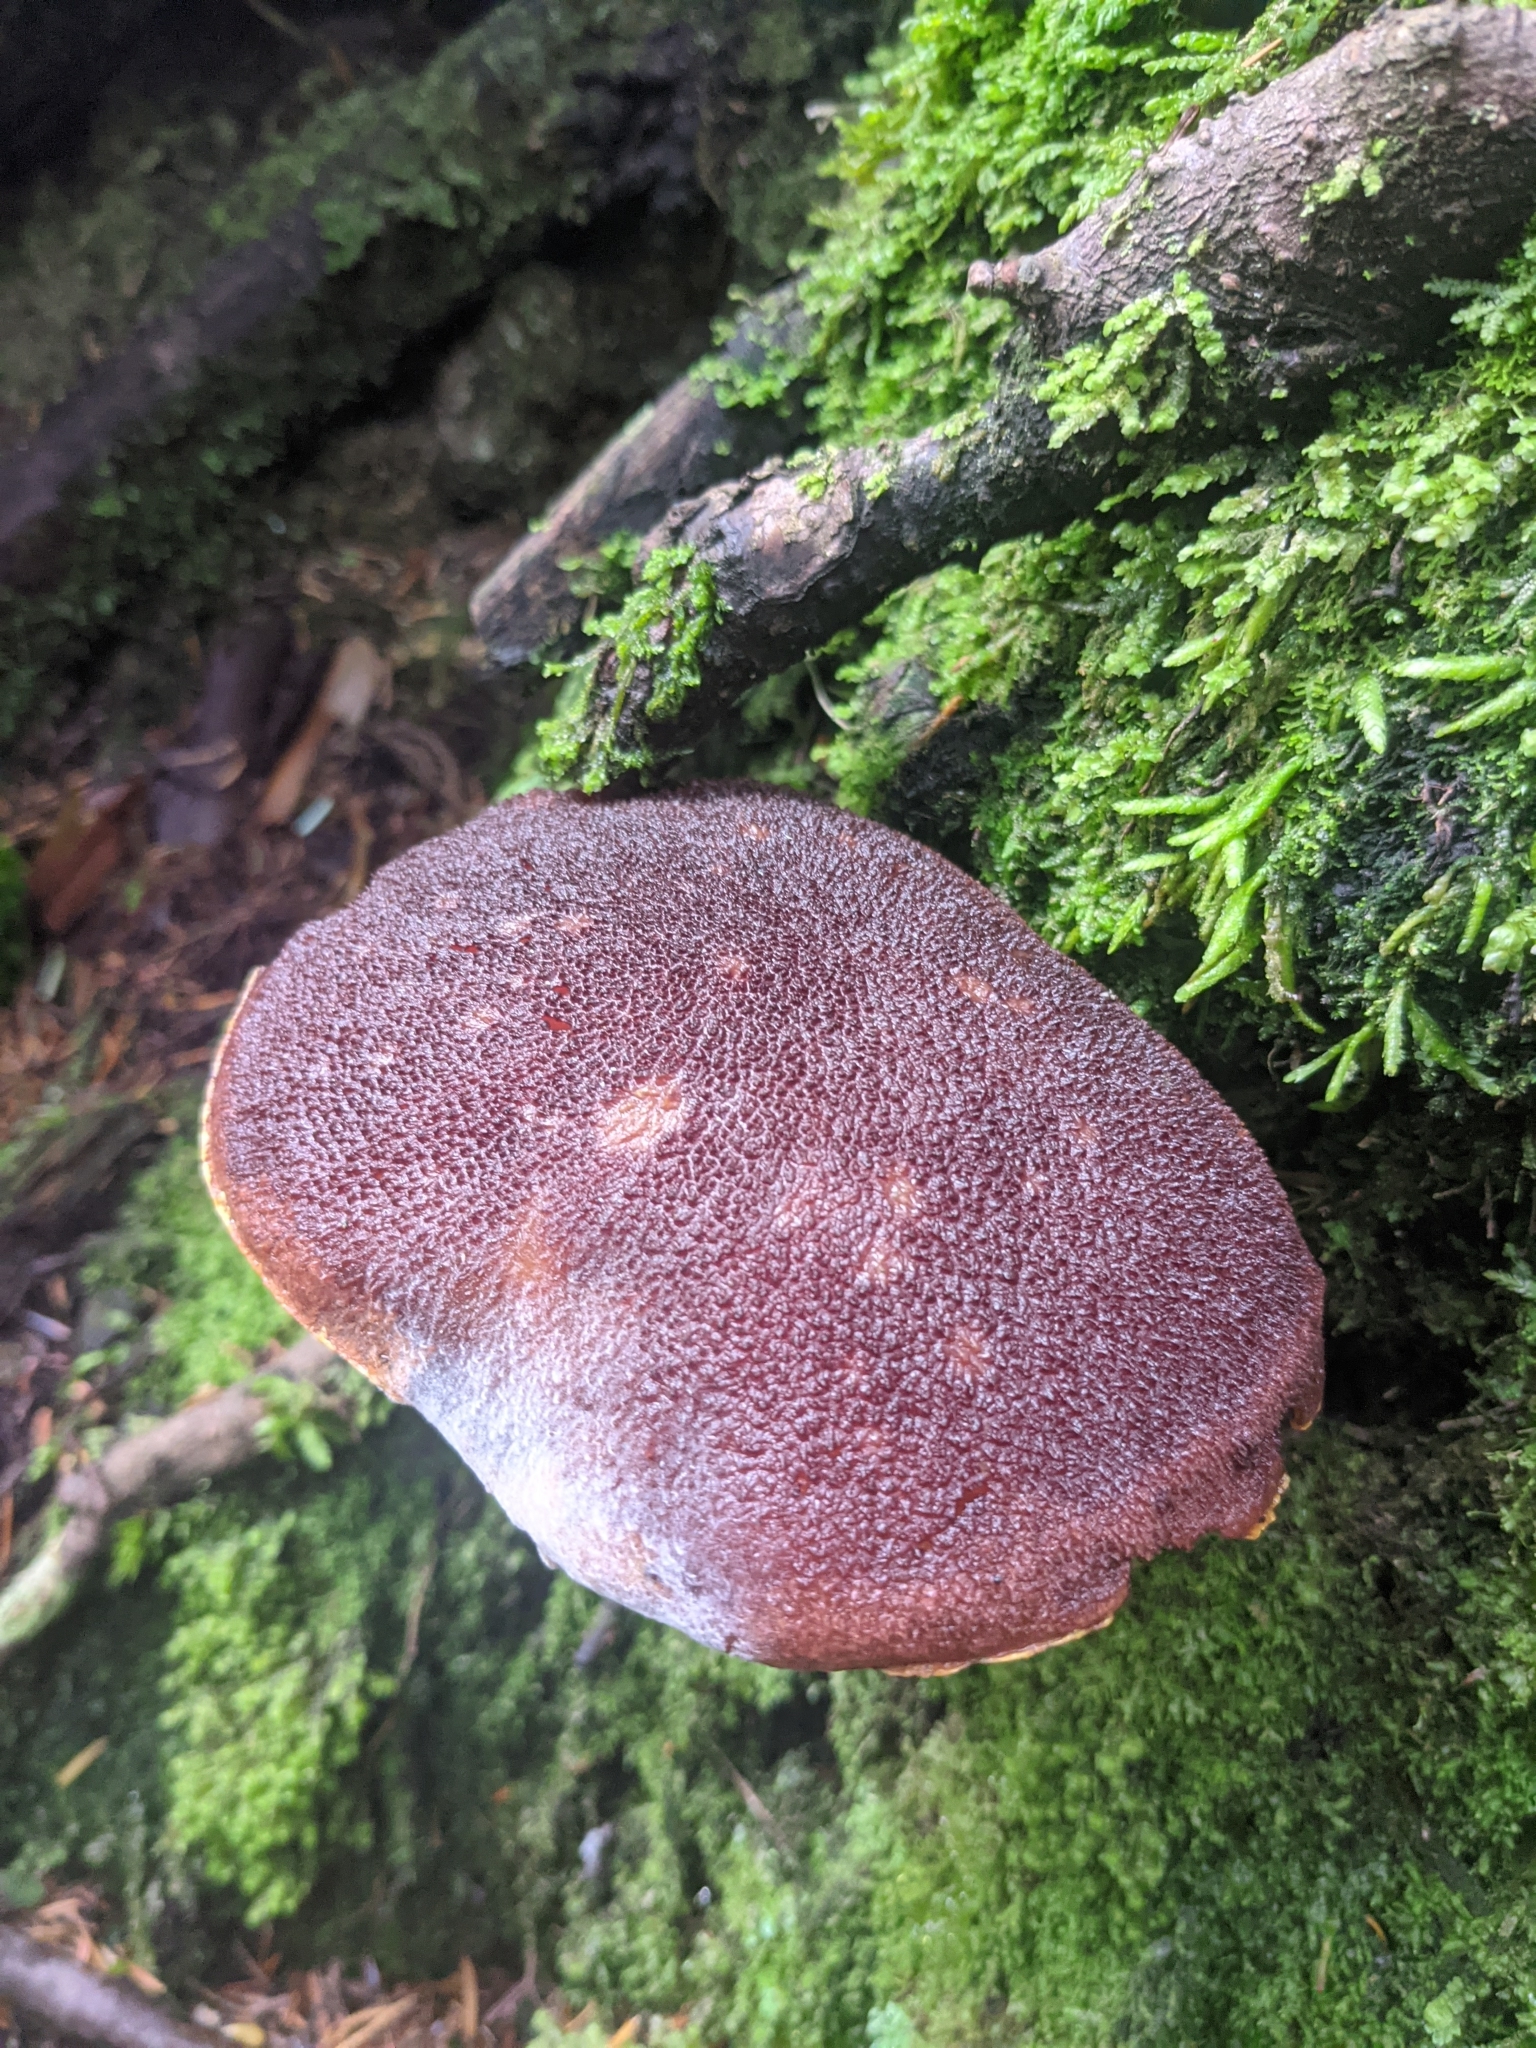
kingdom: Fungi
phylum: Basidiomycota
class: Agaricomycetes
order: Boletales
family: Boletaceae
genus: Aureoboletus
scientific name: Aureoboletus mirabilis
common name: Admirable bolete
